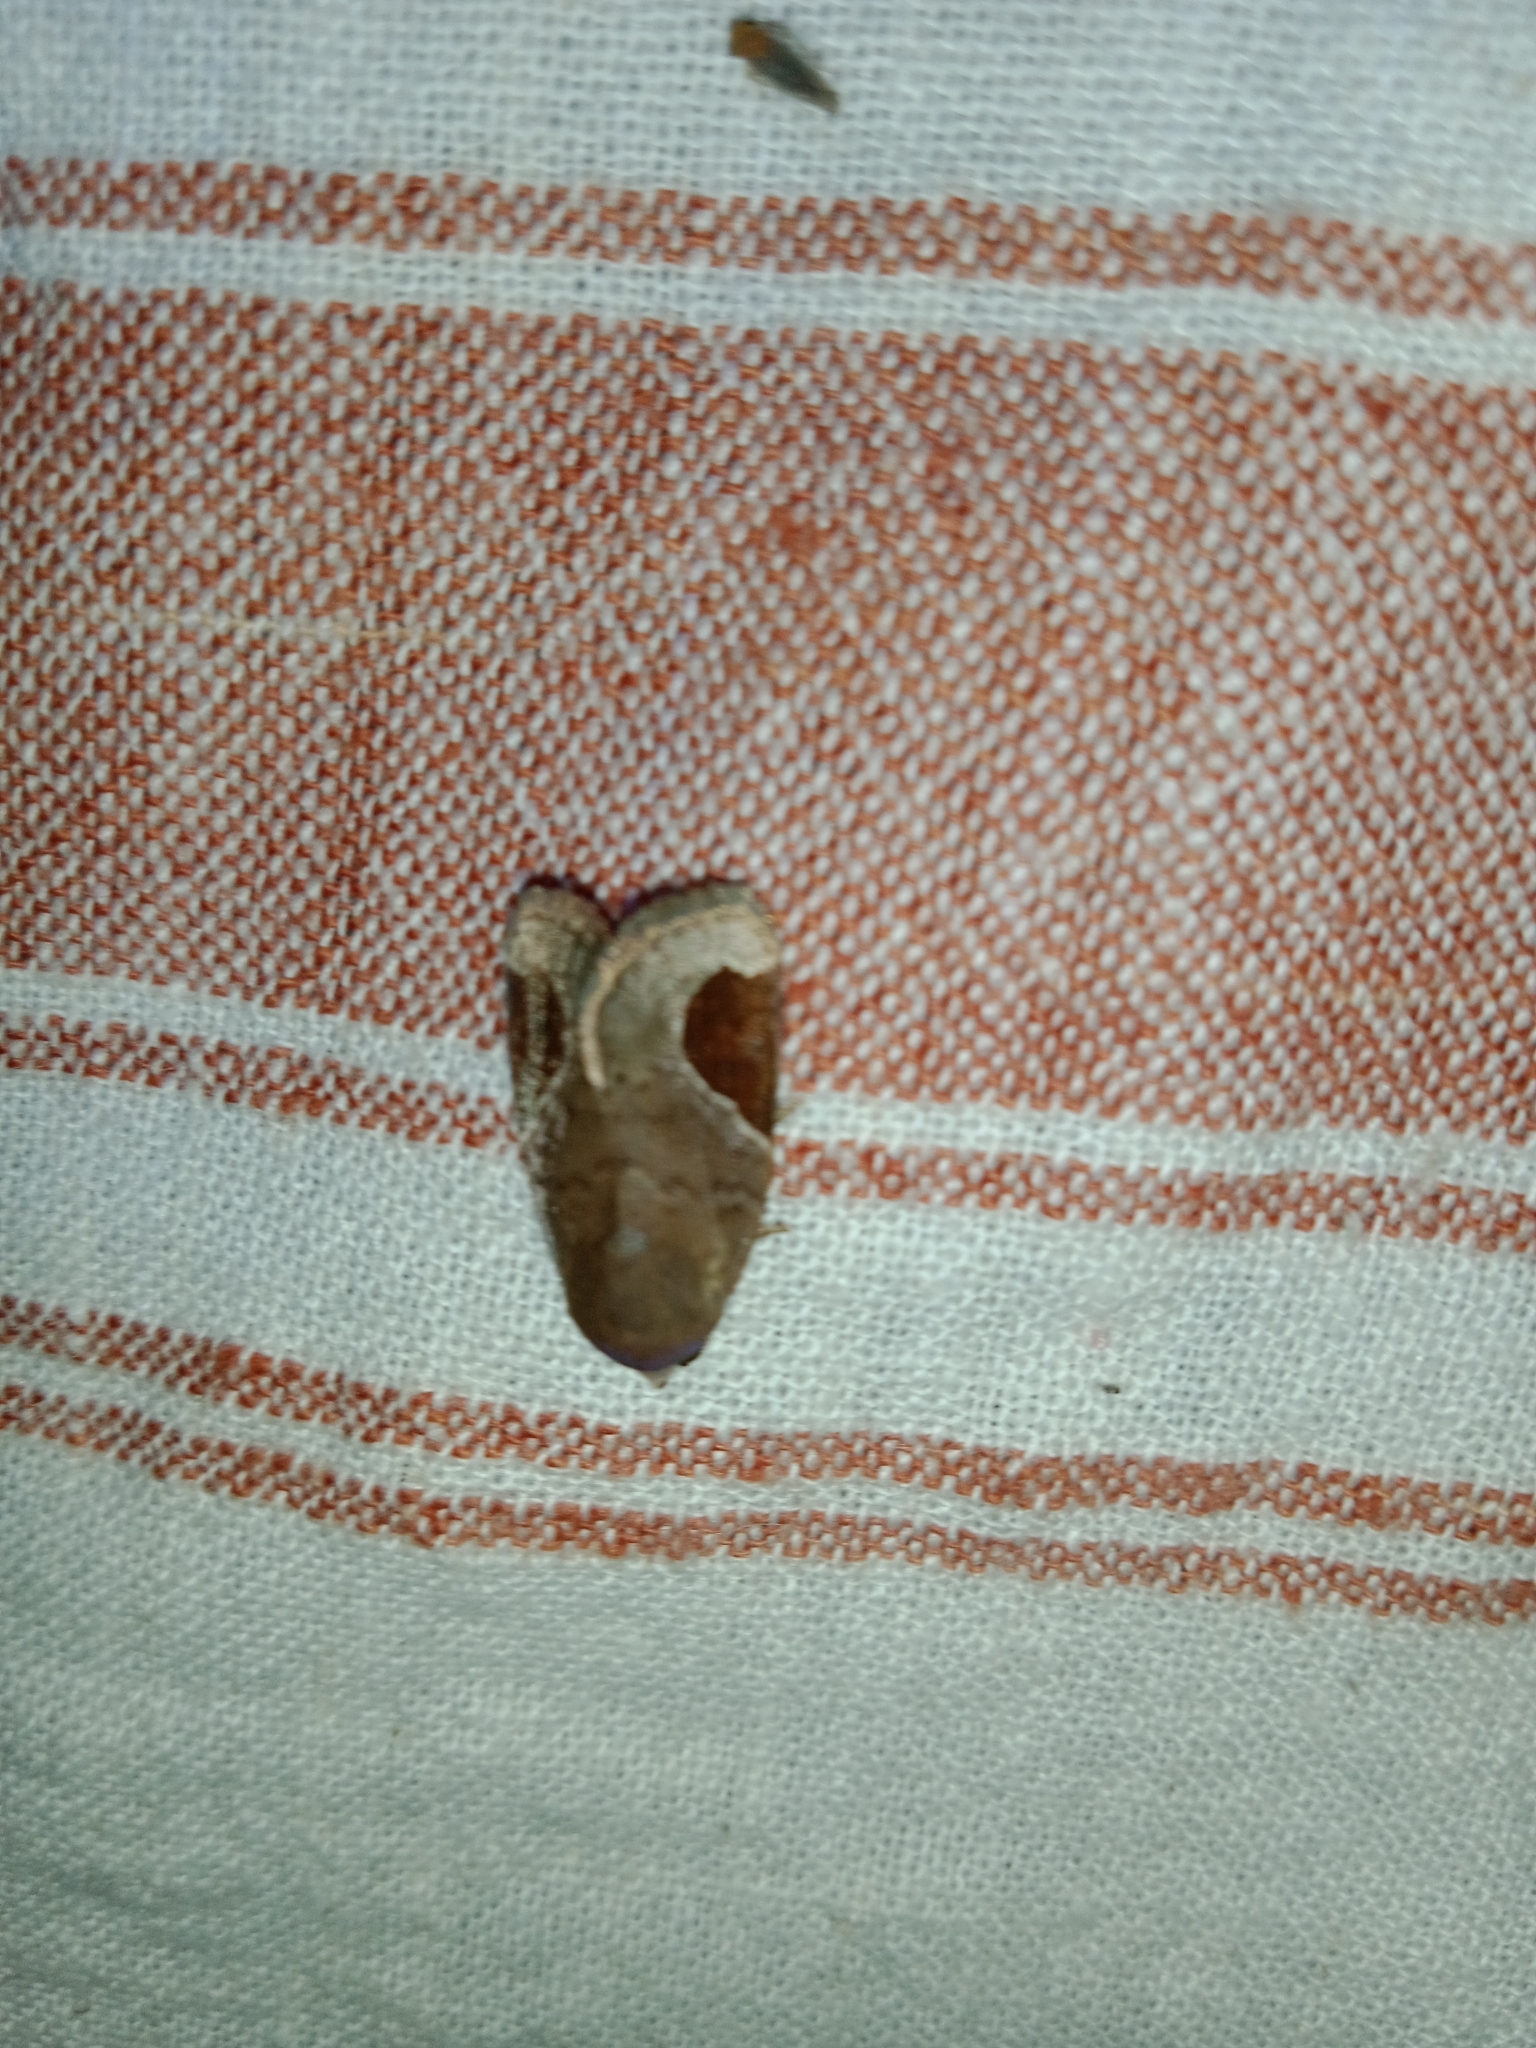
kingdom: Animalia
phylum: Arthropoda
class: Insecta
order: Lepidoptera
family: Noctuidae
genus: Dyrzela
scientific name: Dyrzela plagiata
